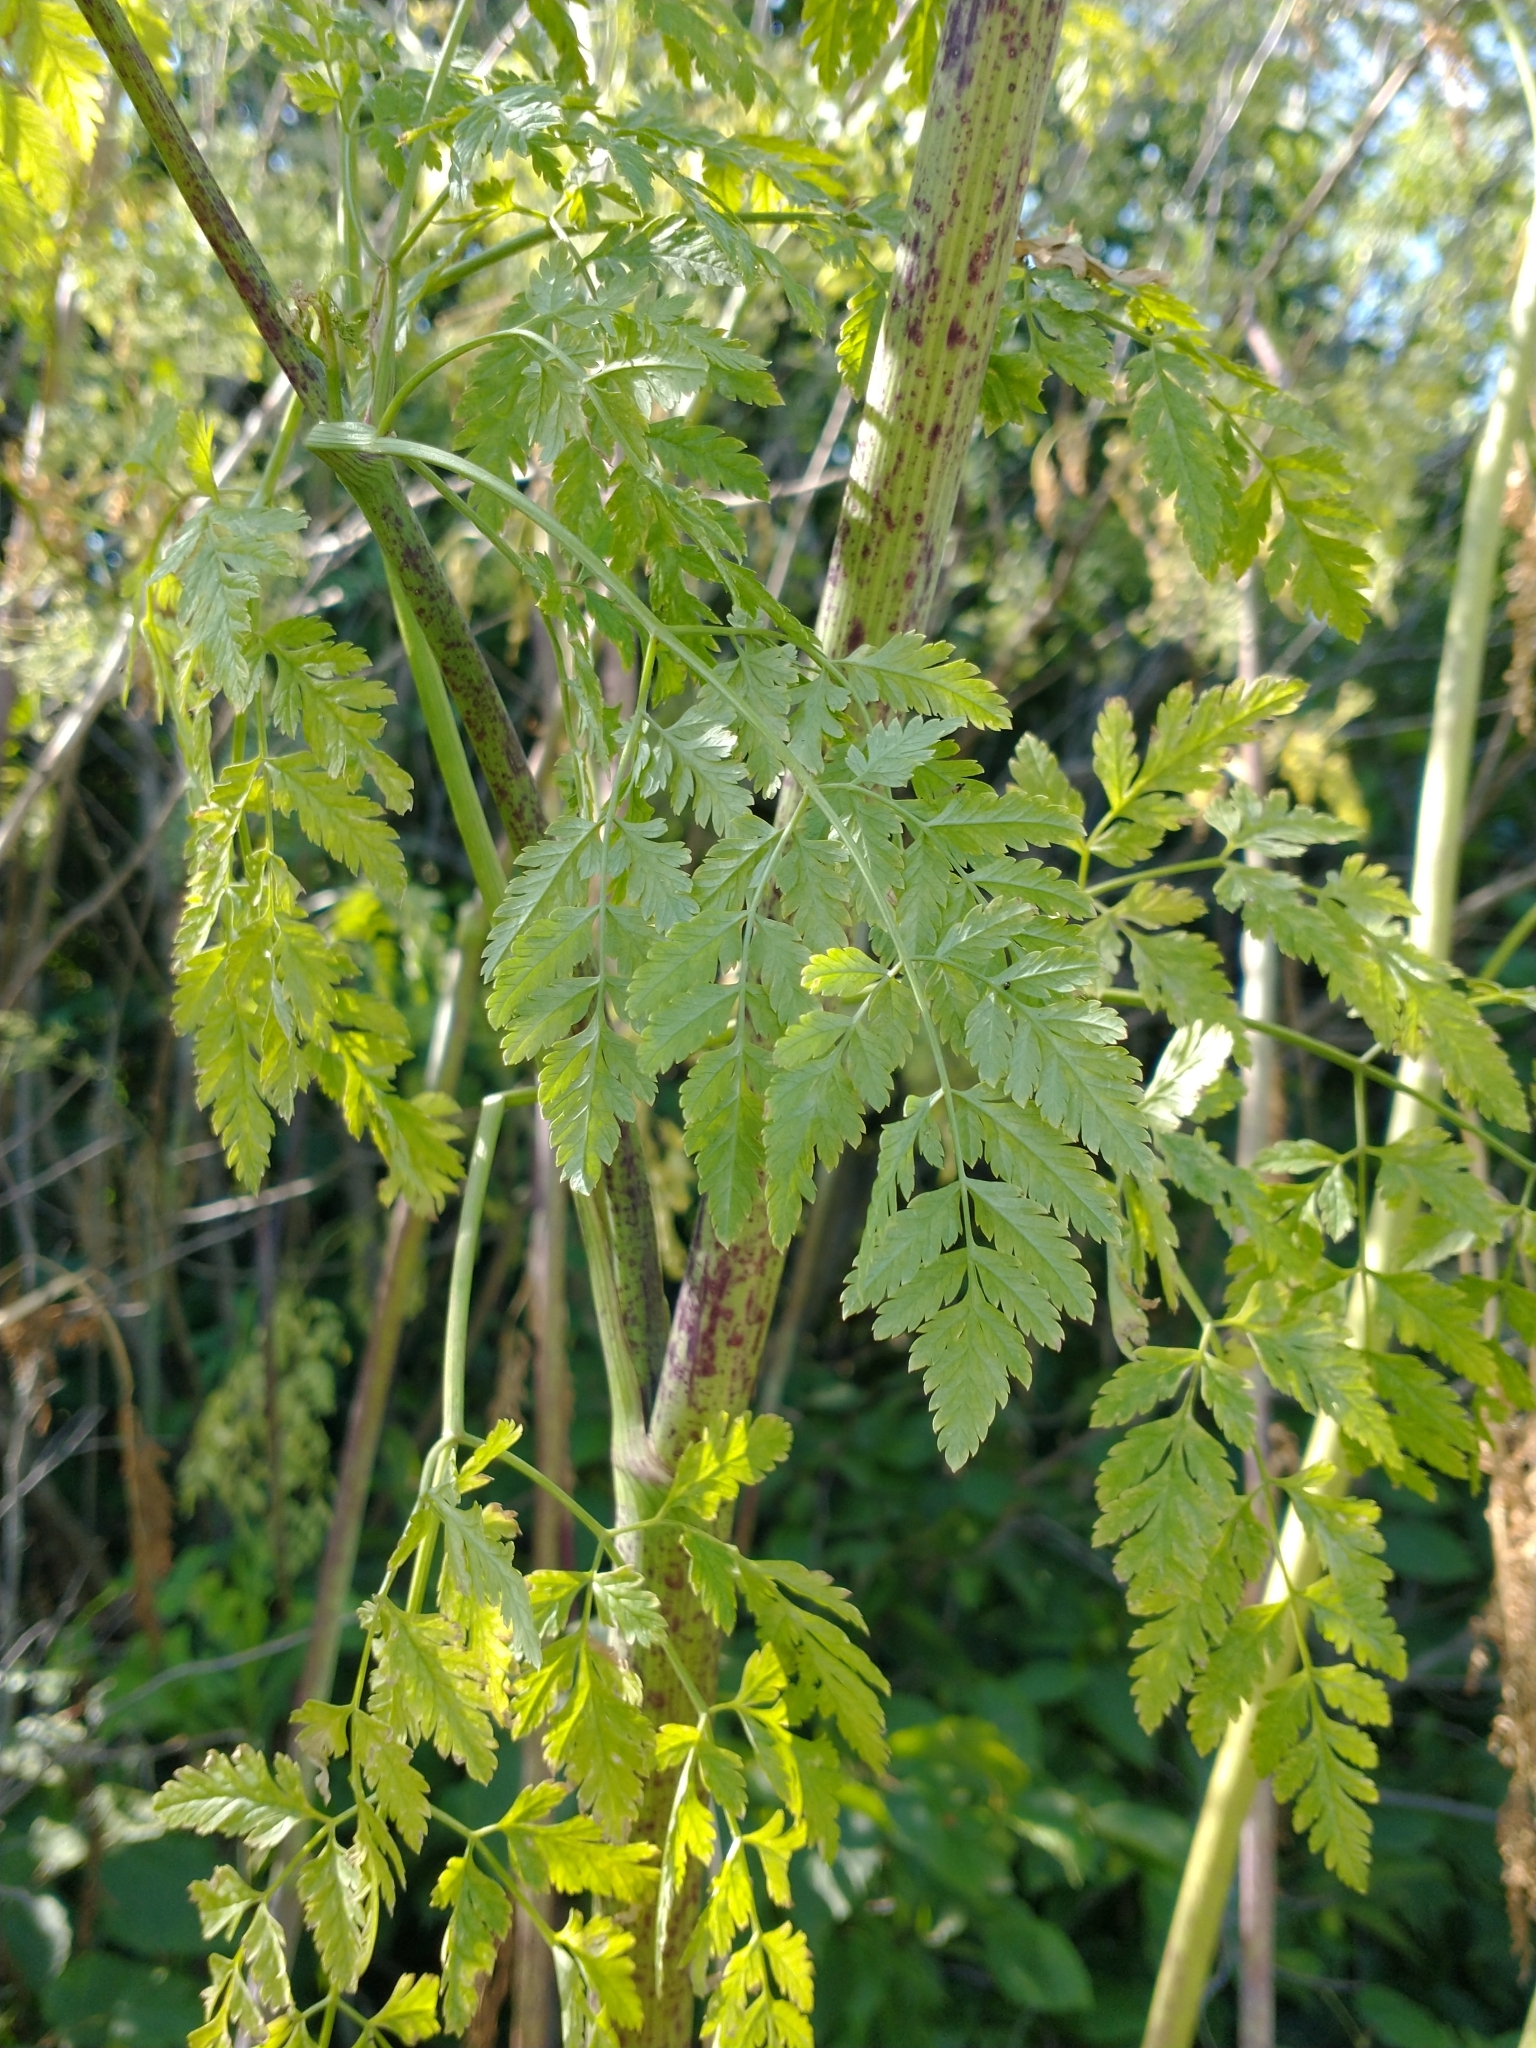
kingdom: Plantae
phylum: Tracheophyta
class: Magnoliopsida
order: Apiales
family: Apiaceae
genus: Conium
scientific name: Conium maculatum
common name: Hemlock
